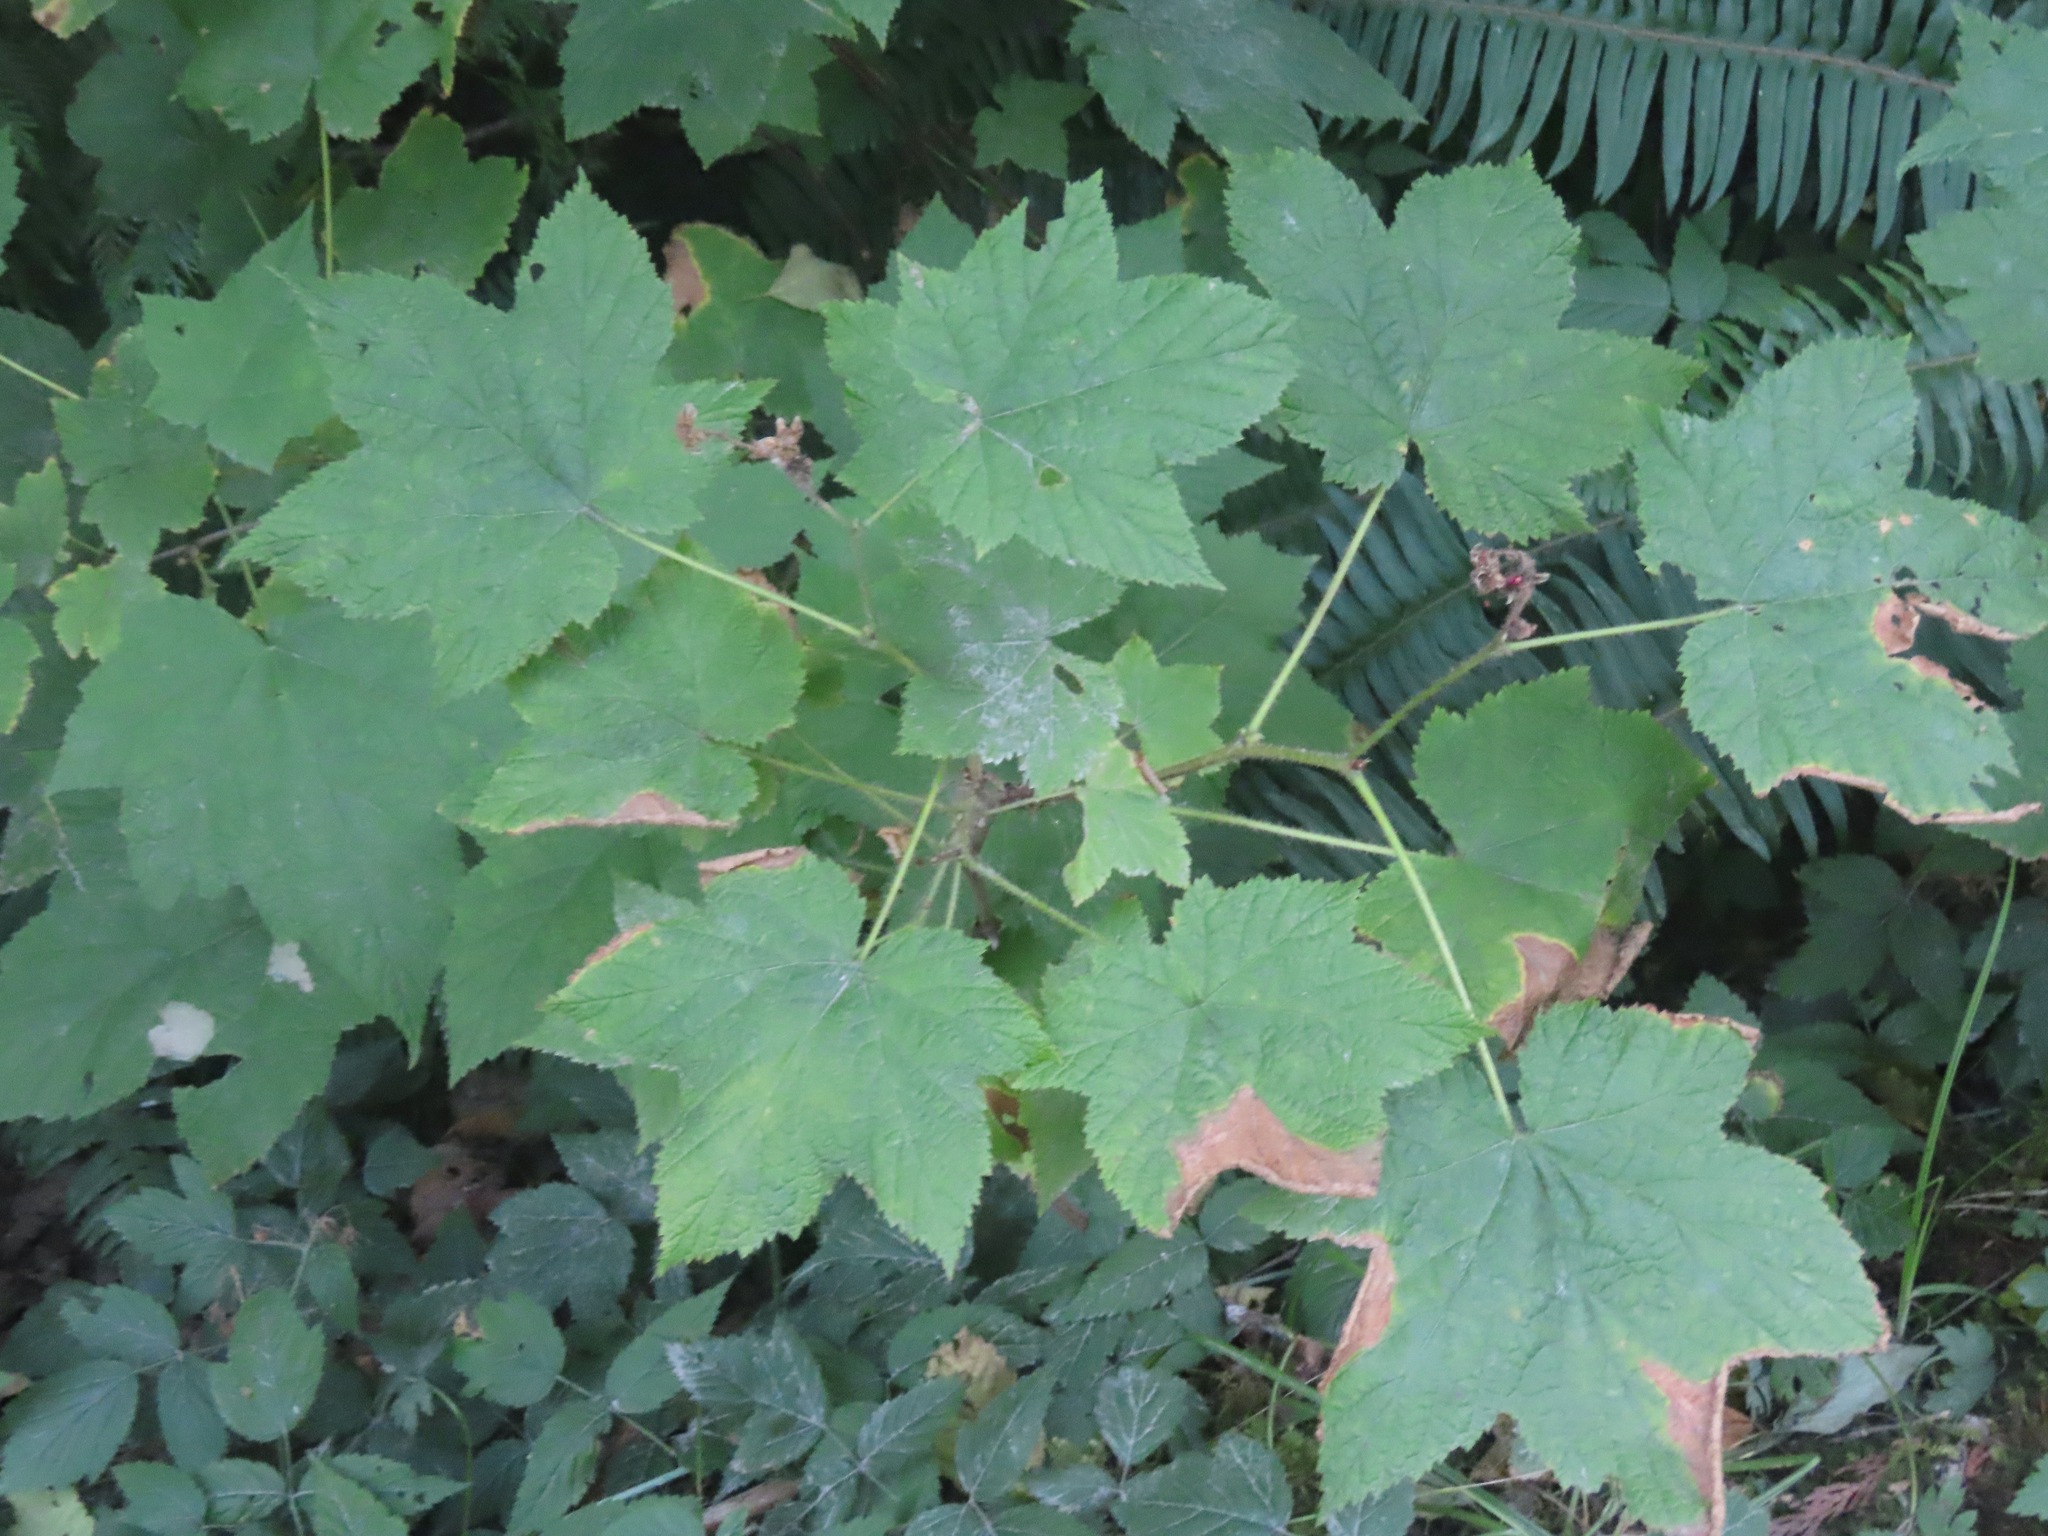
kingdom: Plantae
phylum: Tracheophyta
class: Magnoliopsida
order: Rosales
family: Rosaceae
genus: Rubus
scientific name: Rubus parviflorus
